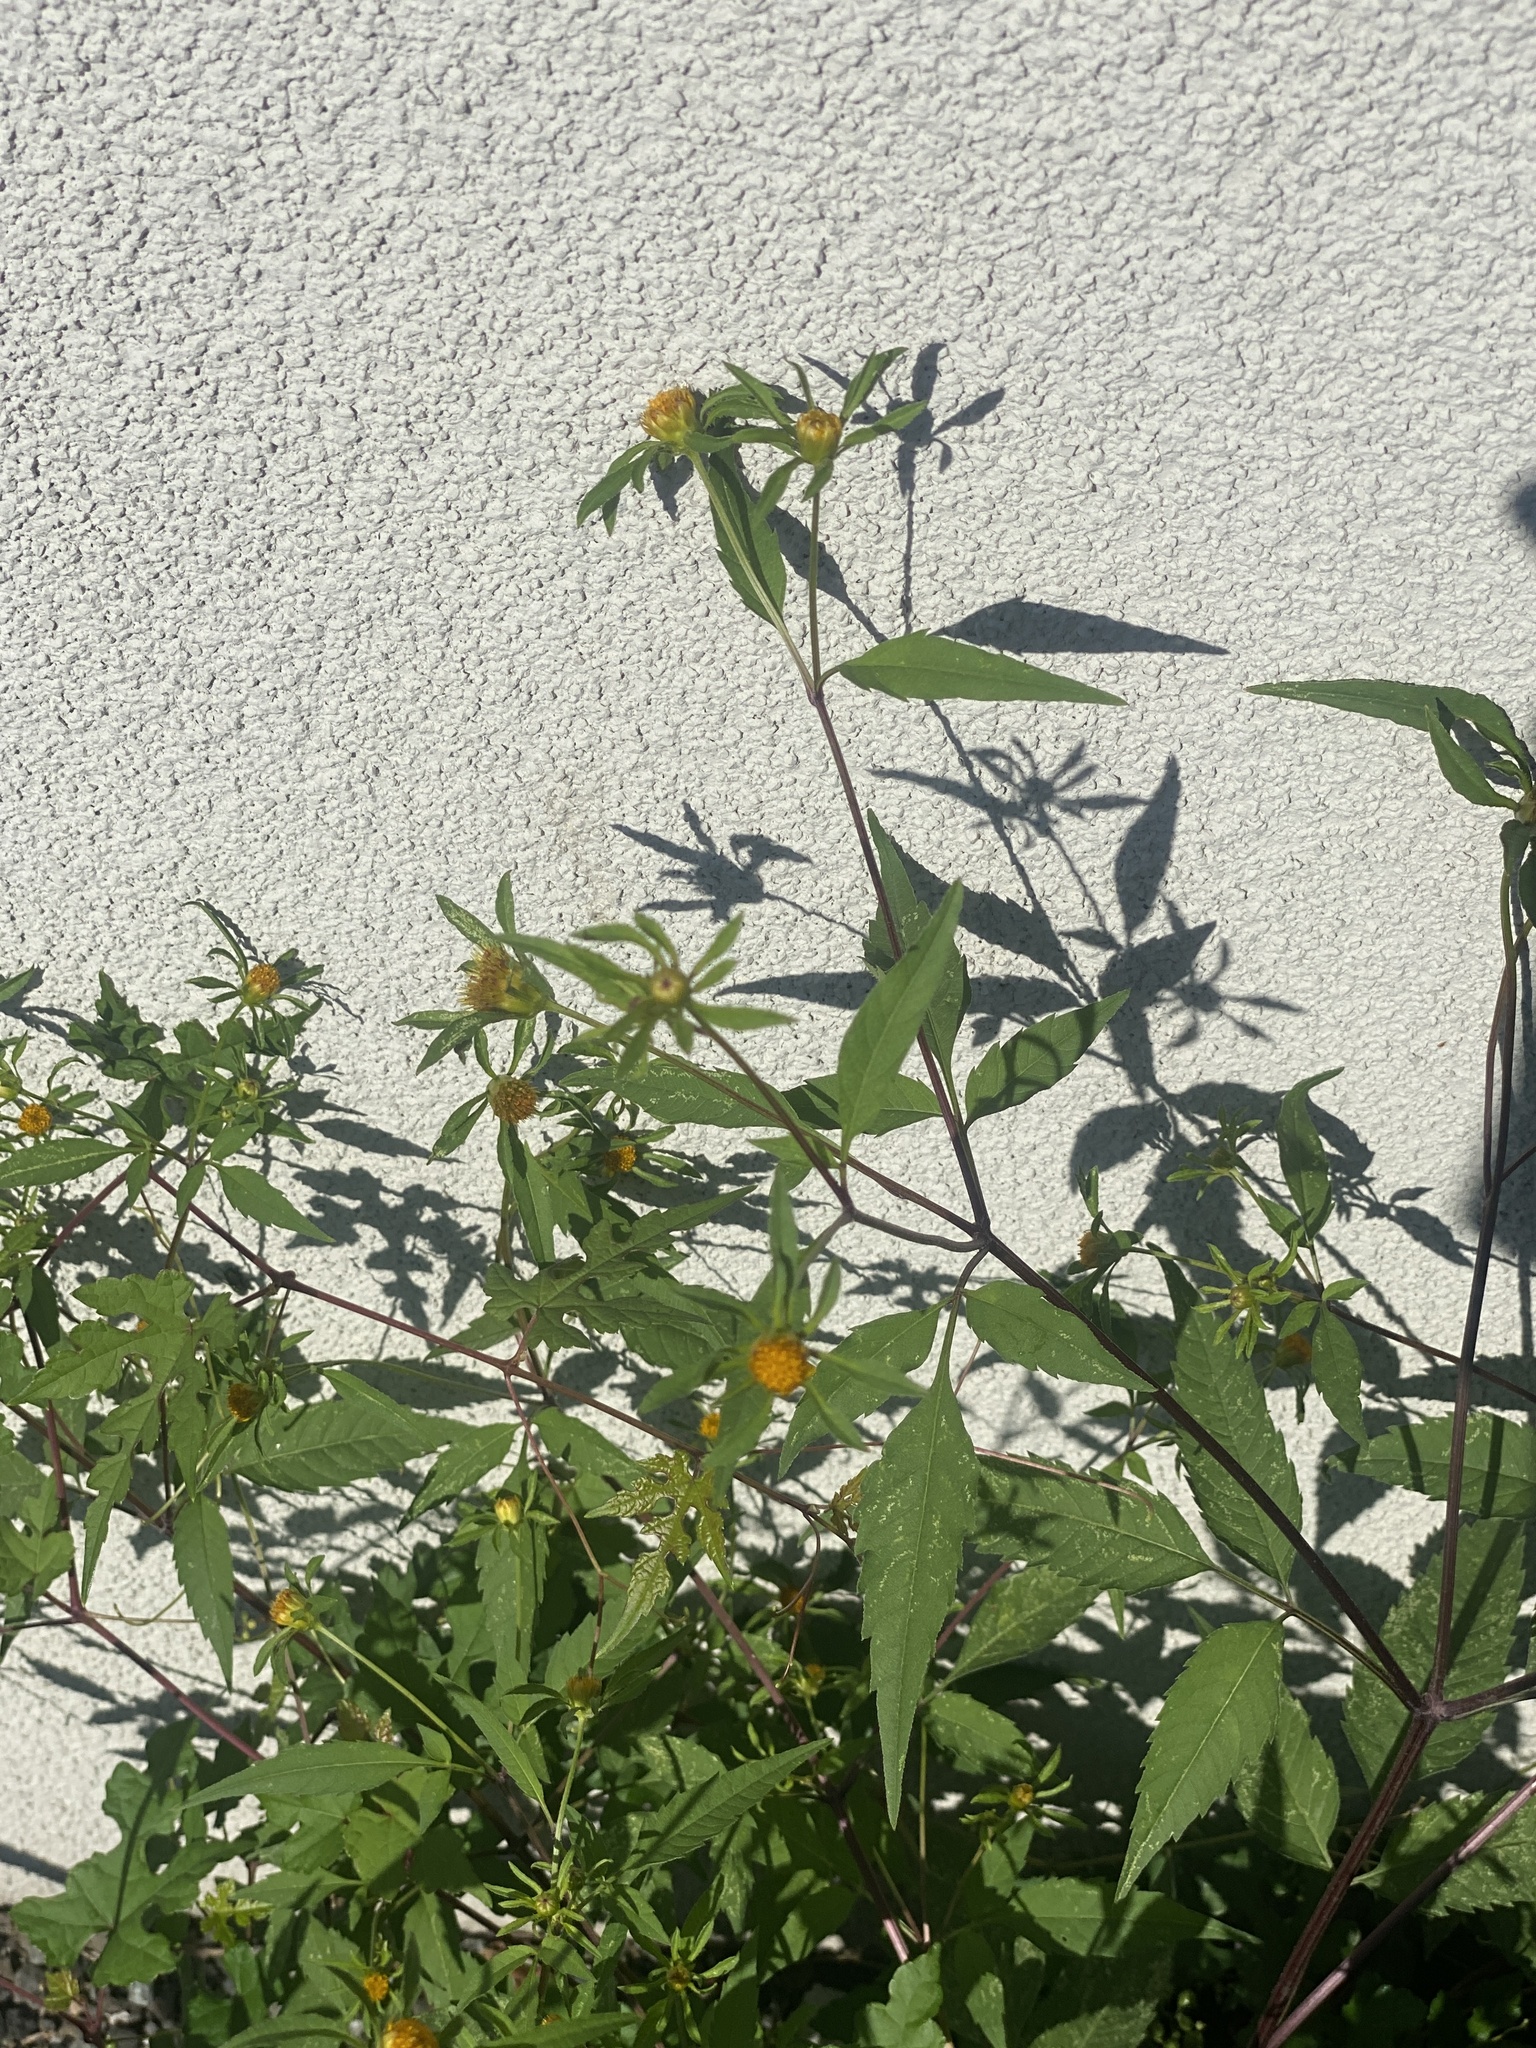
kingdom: Plantae
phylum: Tracheophyta
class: Magnoliopsida
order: Asterales
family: Asteraceae
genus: Bidens
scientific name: Bidens frondosa
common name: Beggarticks
